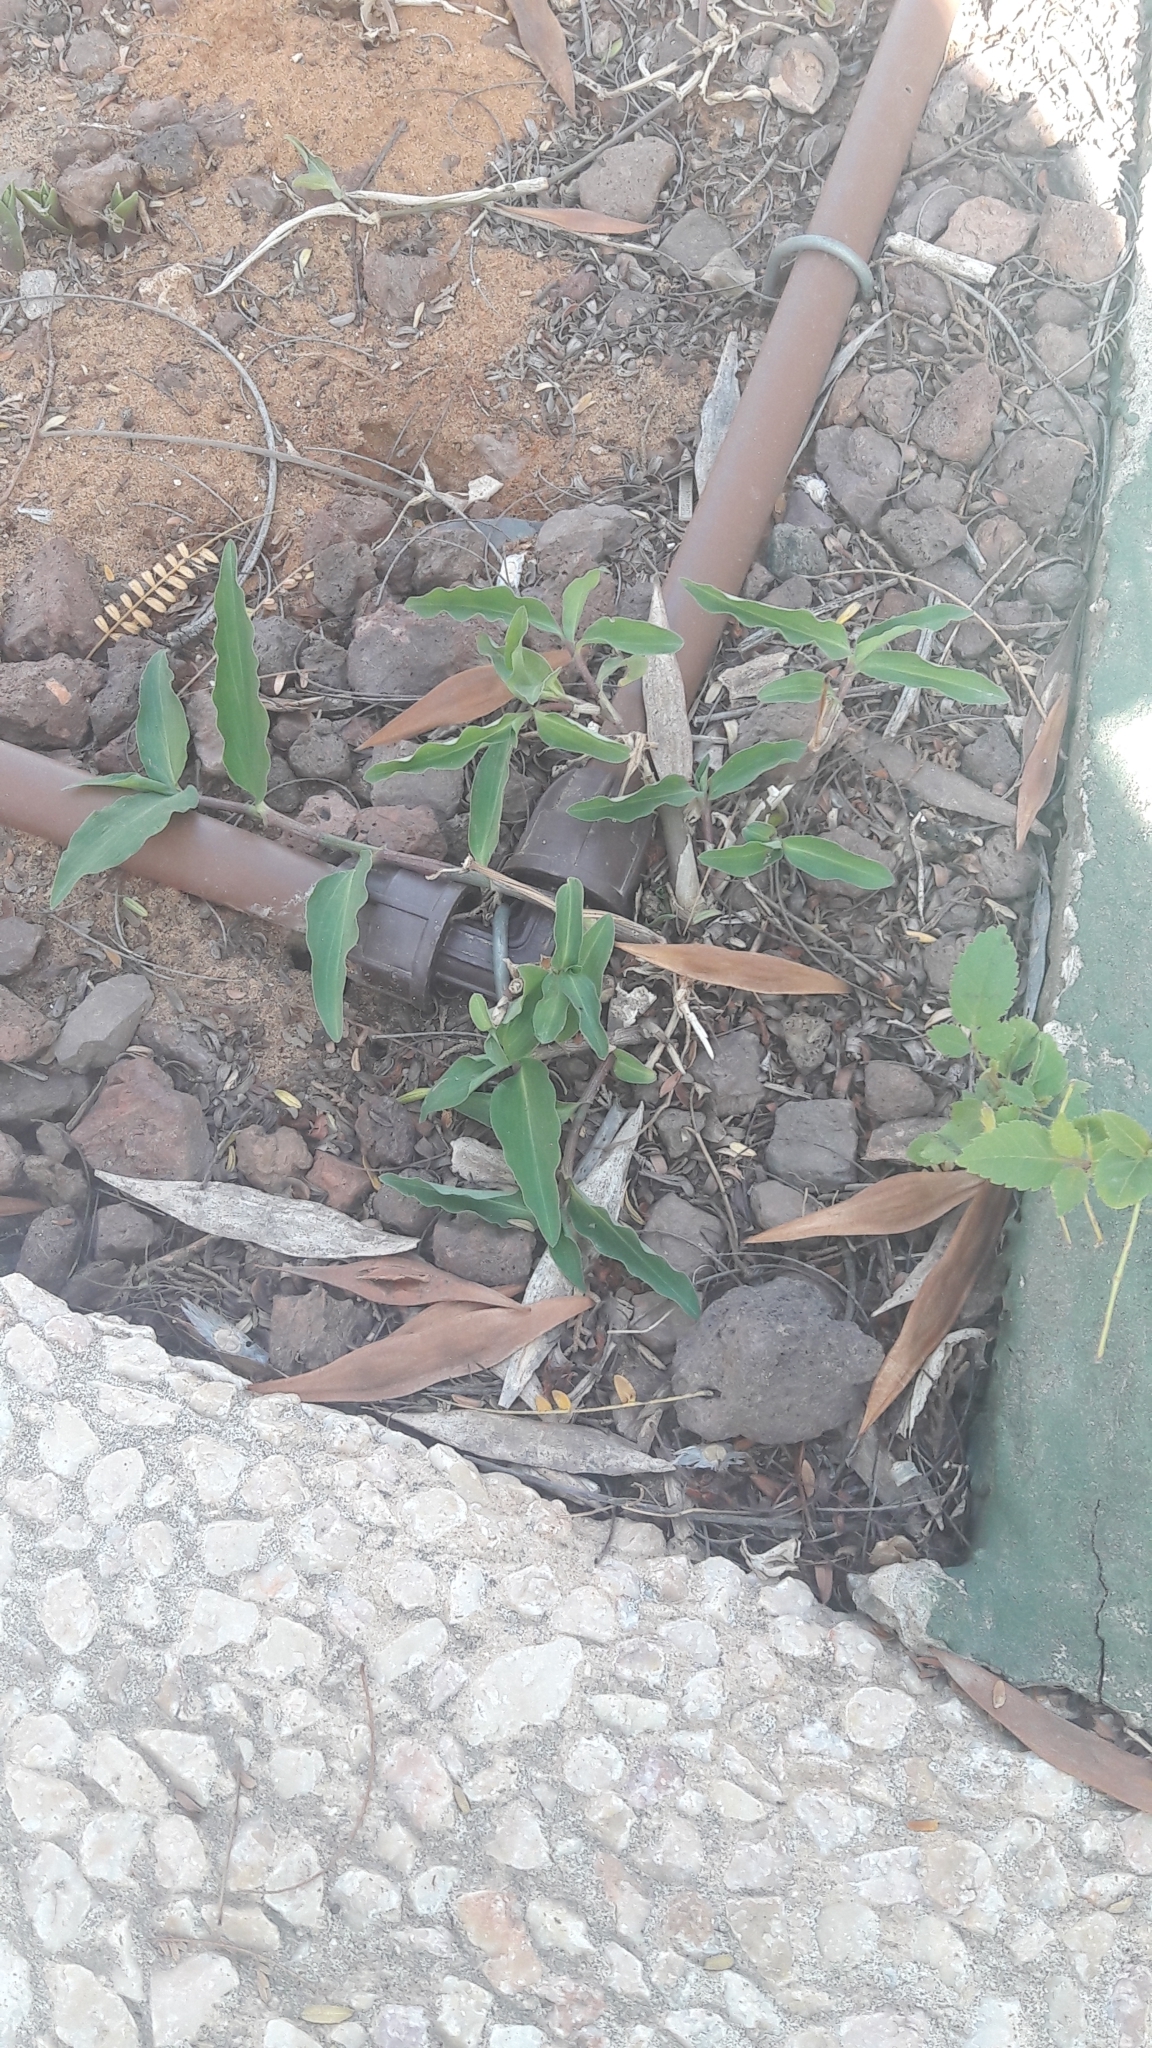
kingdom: Plantae
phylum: Tracheophyta
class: Liliopsida
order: Commelinales
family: Commelinaceae
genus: Commelina
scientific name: Commelina erecta
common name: Blousel blommetjie
